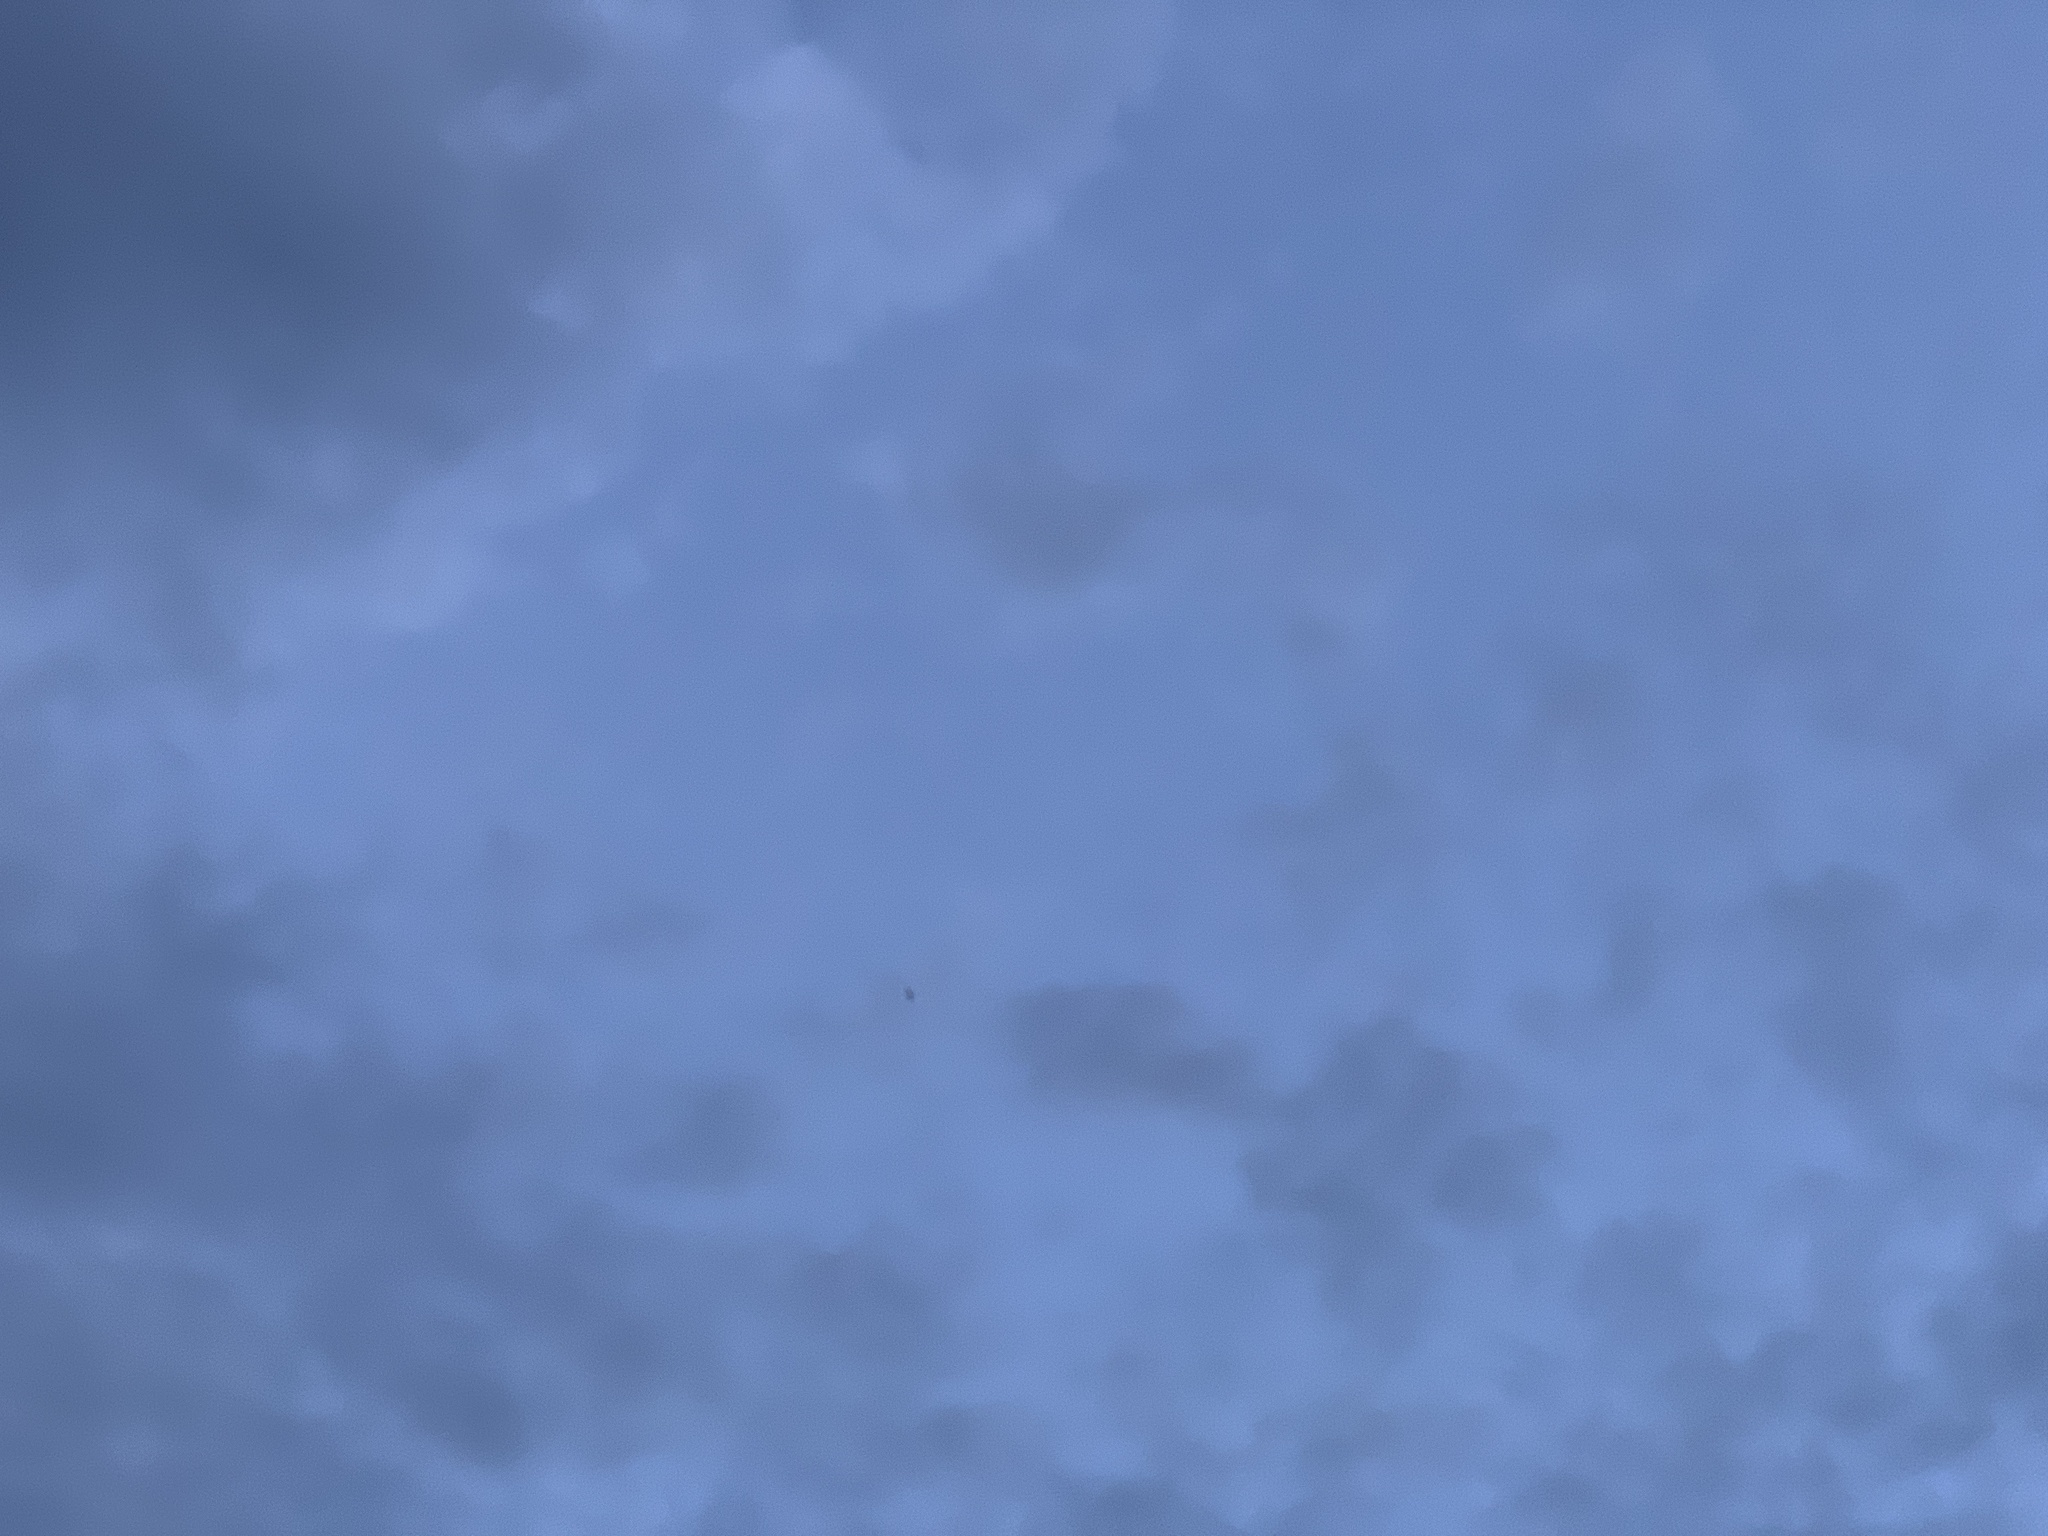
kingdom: Animalia
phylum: Chordata
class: Aves
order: Caprimulgiformes
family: Caprimulgidae
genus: Chordeiles
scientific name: Chordeiles minor
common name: Common nighthawk
